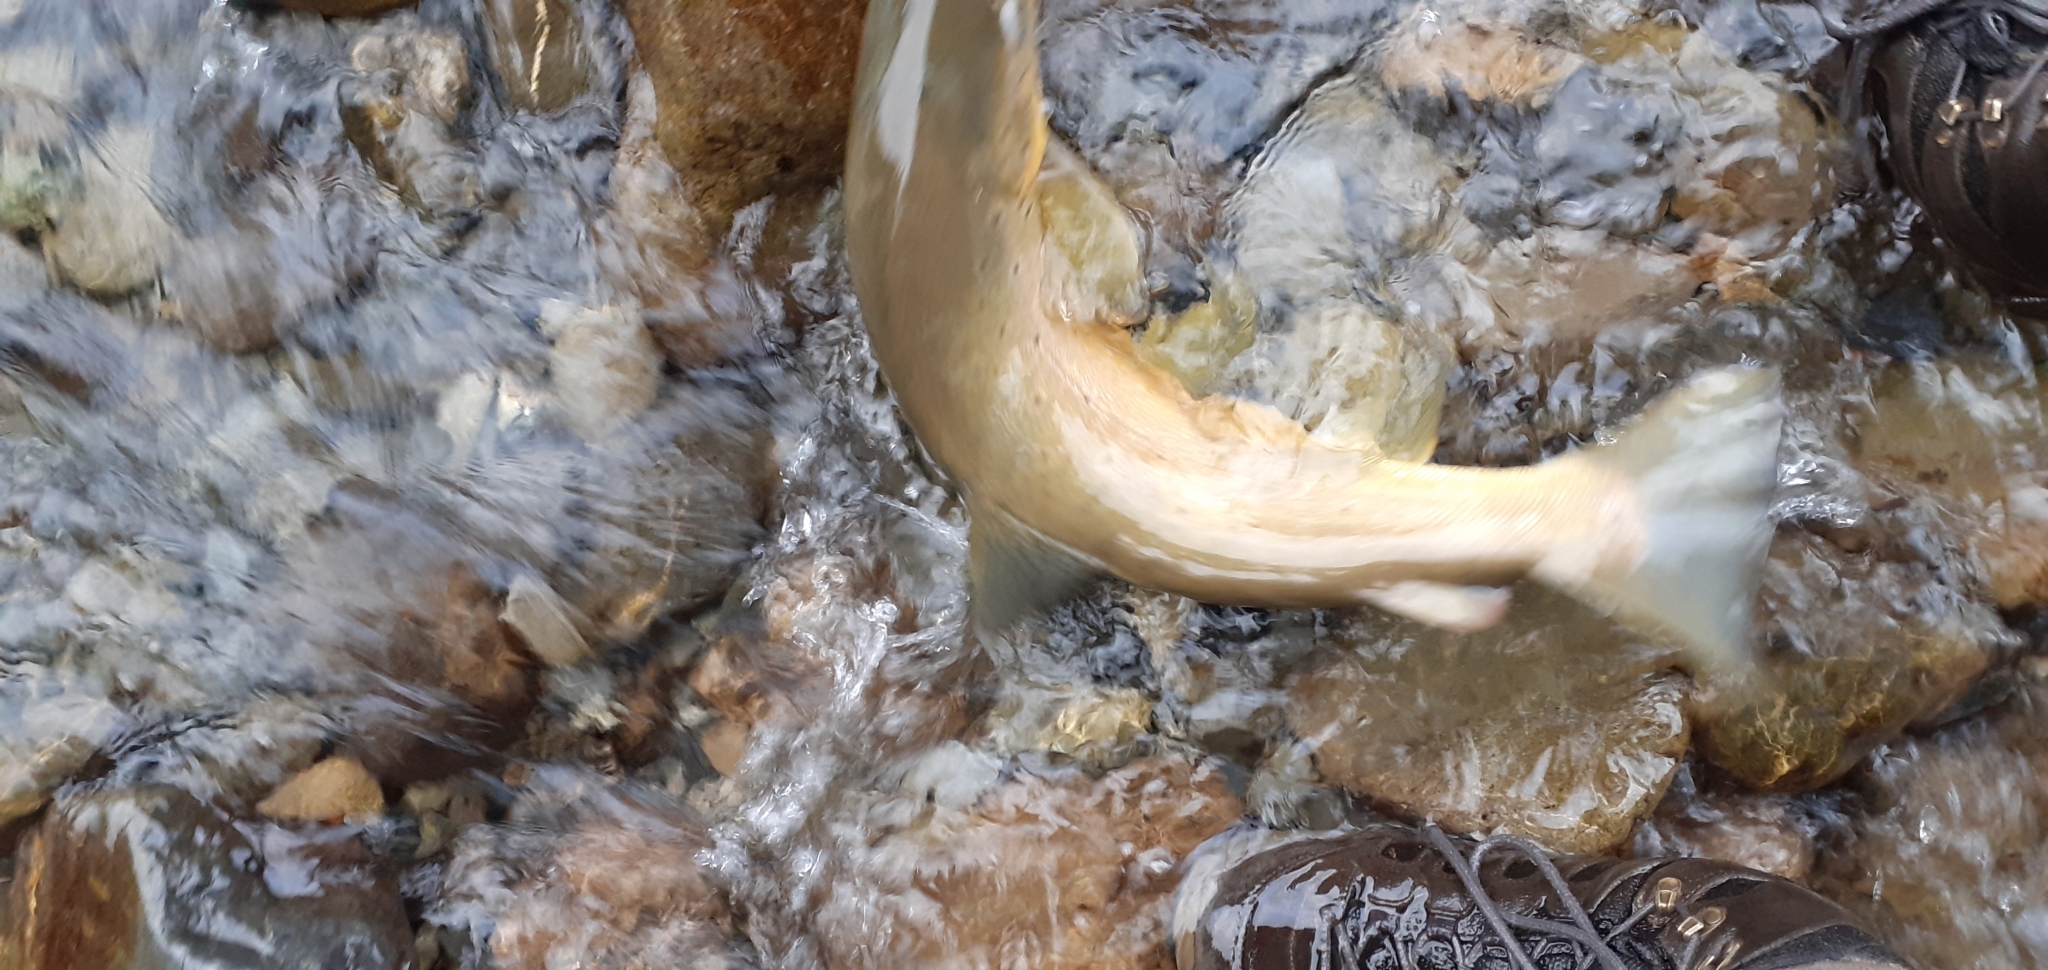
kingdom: Animalia
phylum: Chordata
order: Salmoniformes
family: Salmonidae
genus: Salmo
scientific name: Salmo trutta
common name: Brown trout
